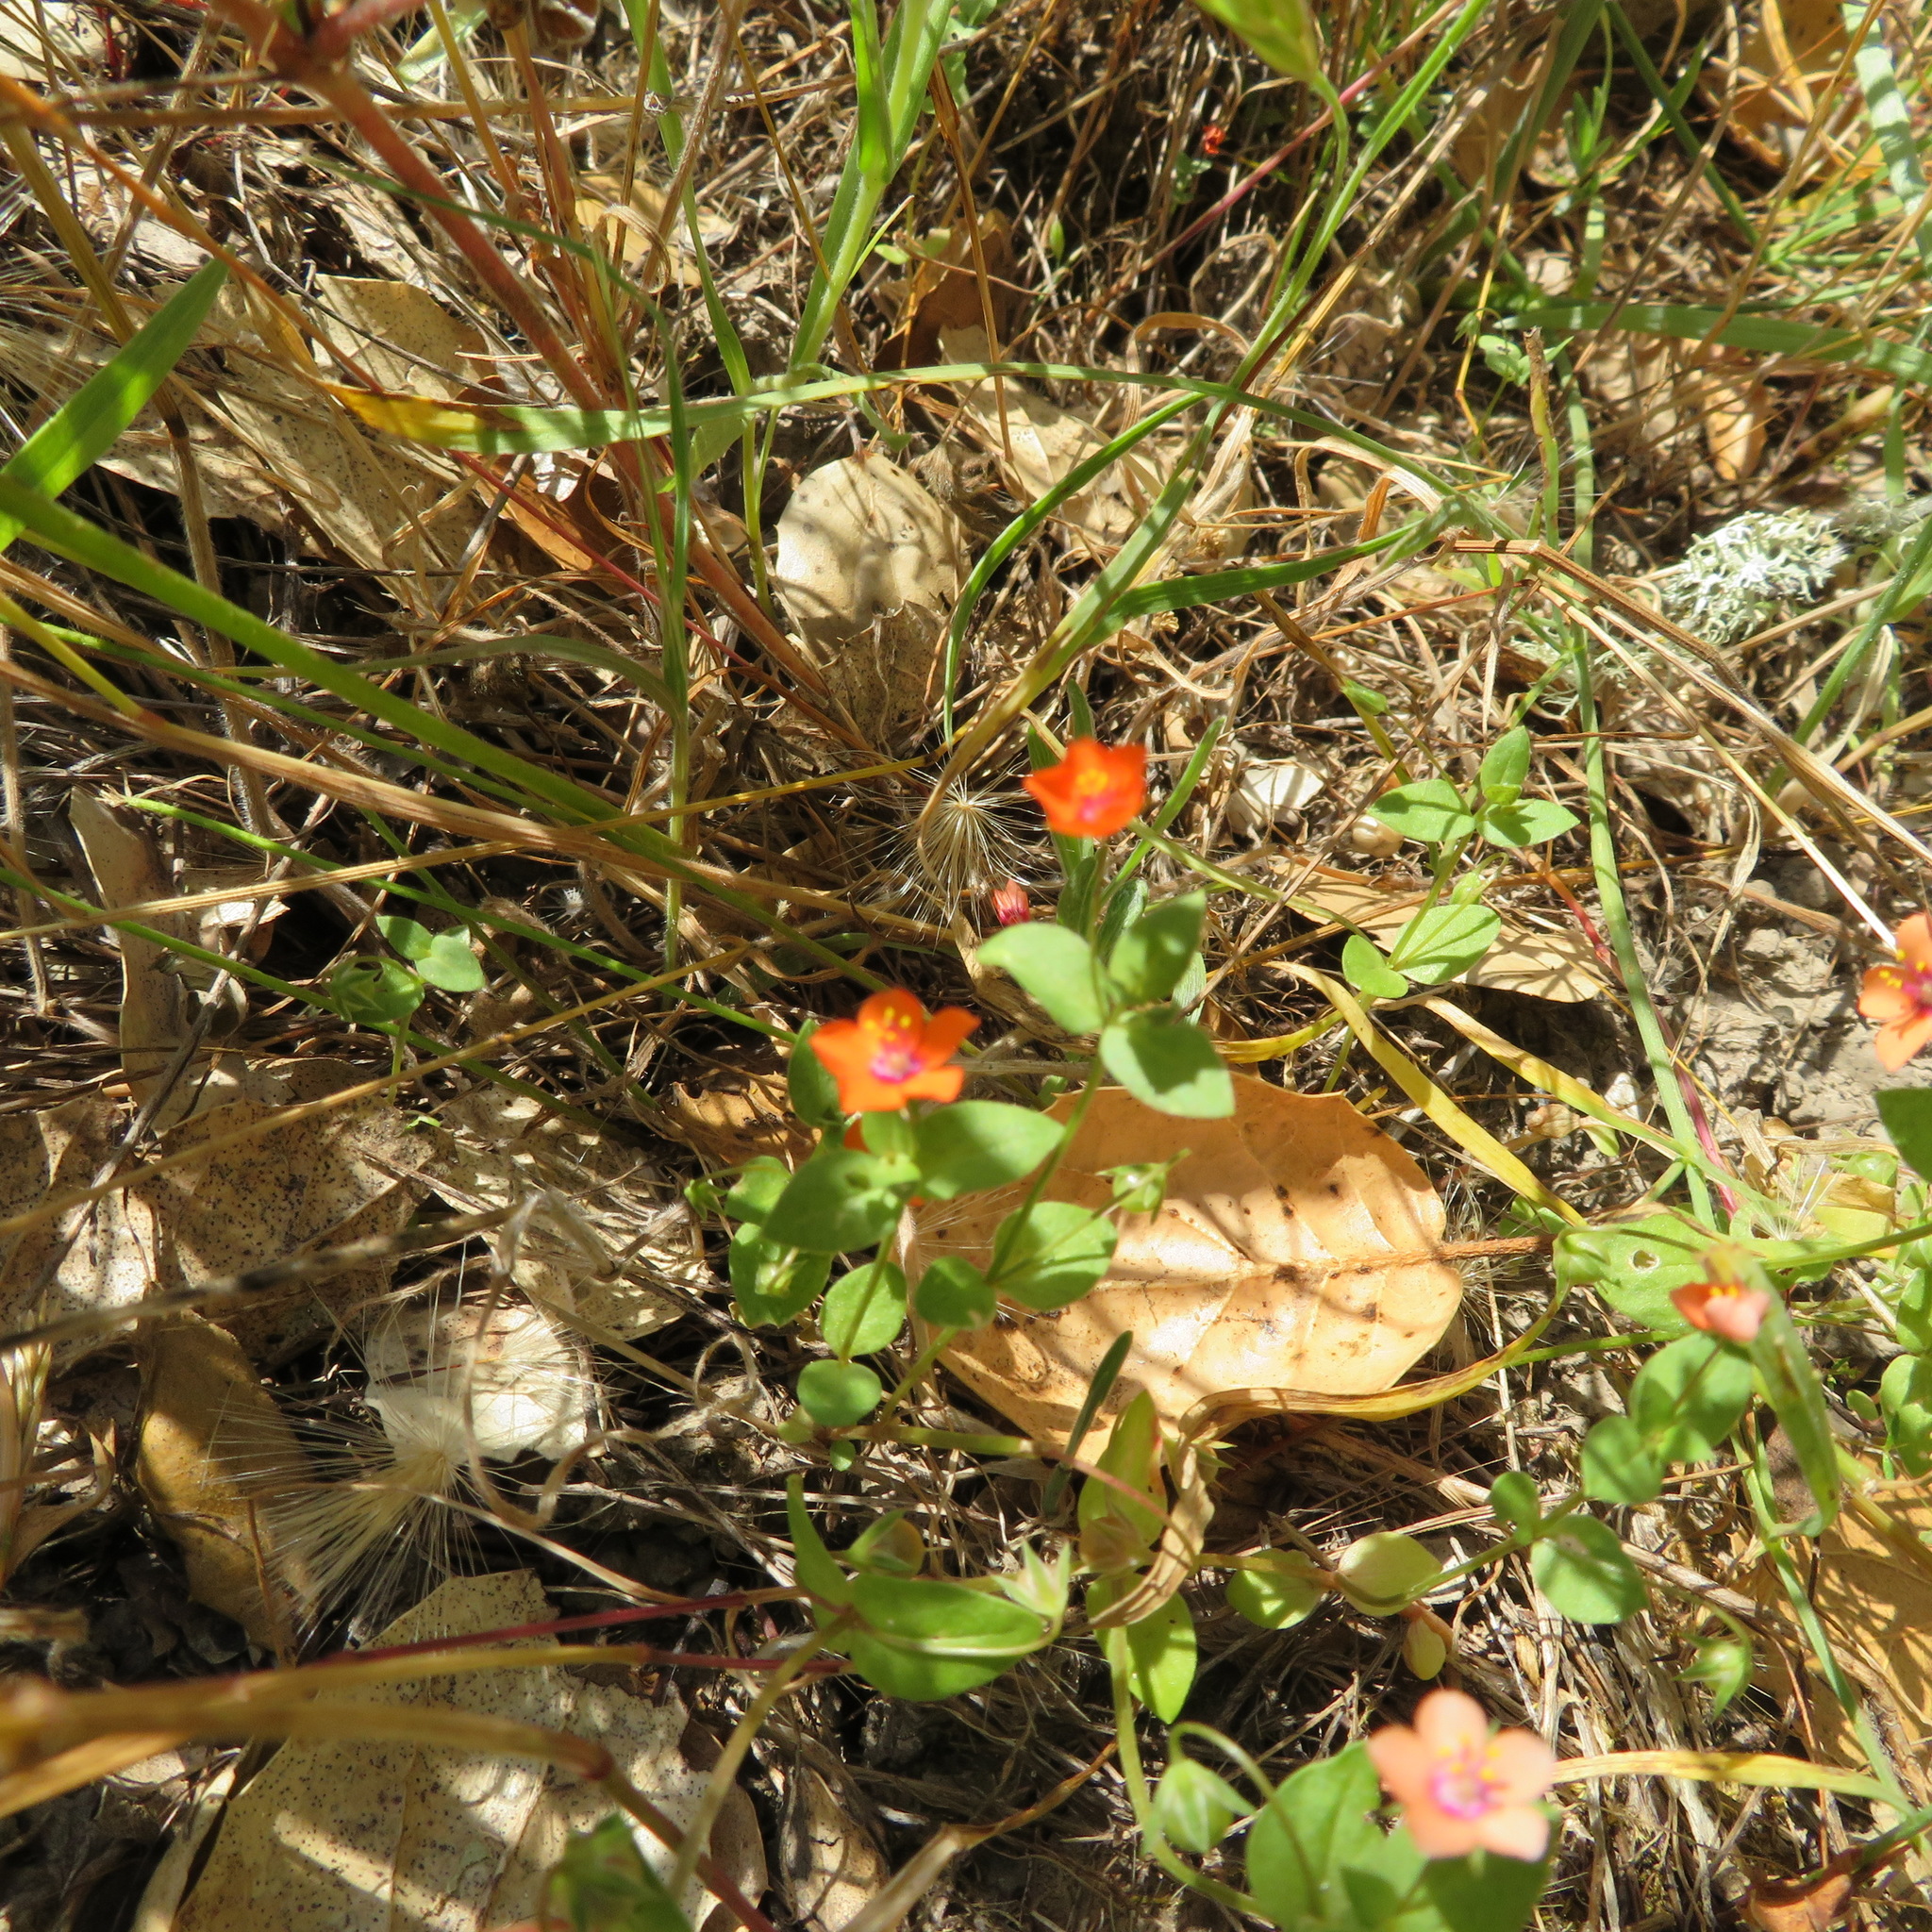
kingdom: Plantae
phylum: Tracheophyta
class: Magnoliopsida
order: Ericales
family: Primulaceae
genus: Lysimachia
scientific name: Lysimachia arvensis
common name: Scarlet pimpernel
